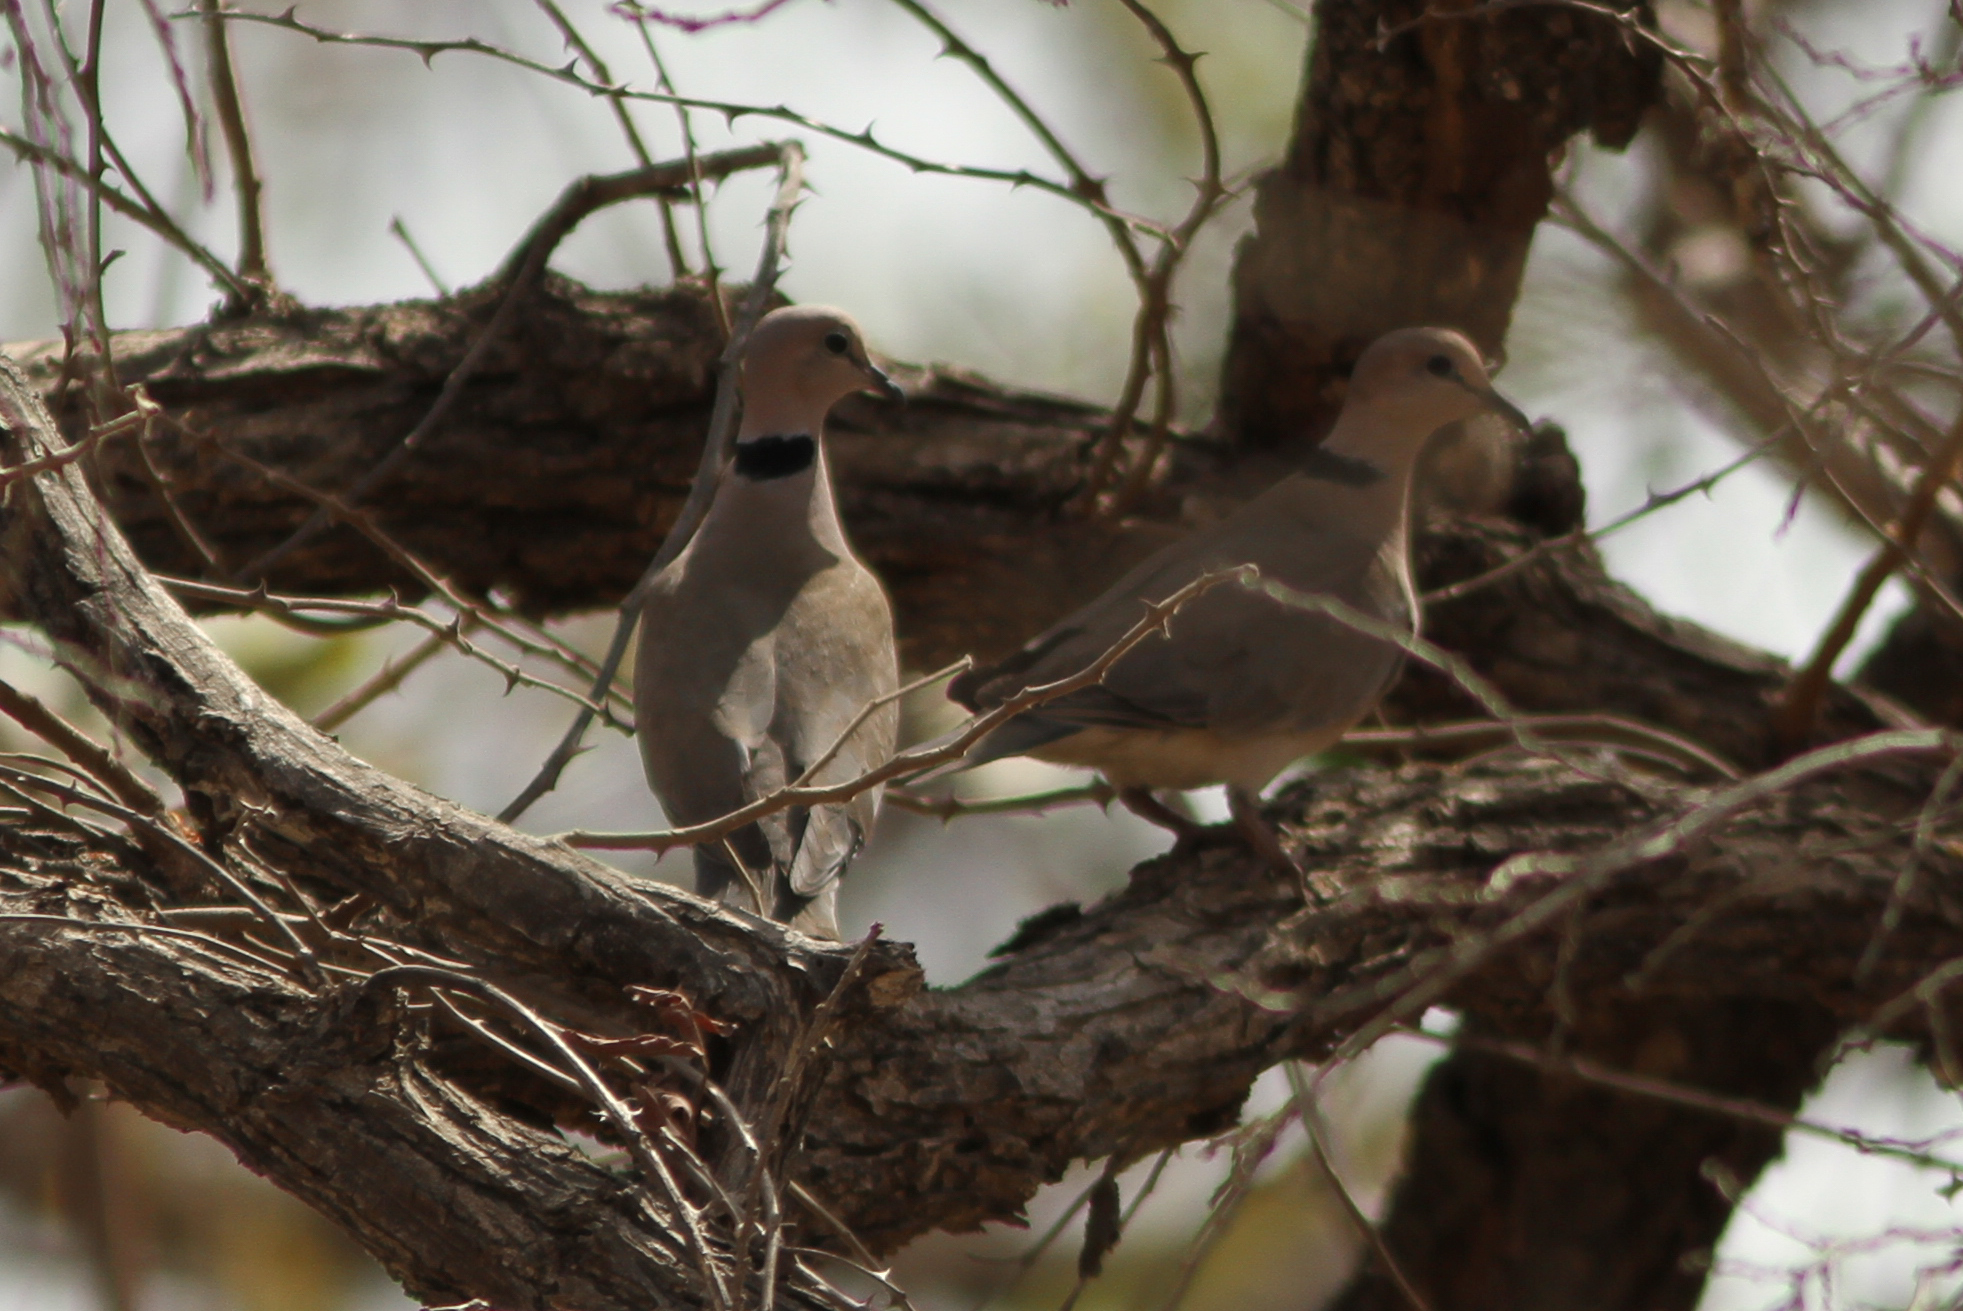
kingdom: Animalia
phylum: Chordata
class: Aves
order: Columbiformes
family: Columbidae
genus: Streptopelia
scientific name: Streptopelia vinacea
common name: Vinaceous dove
